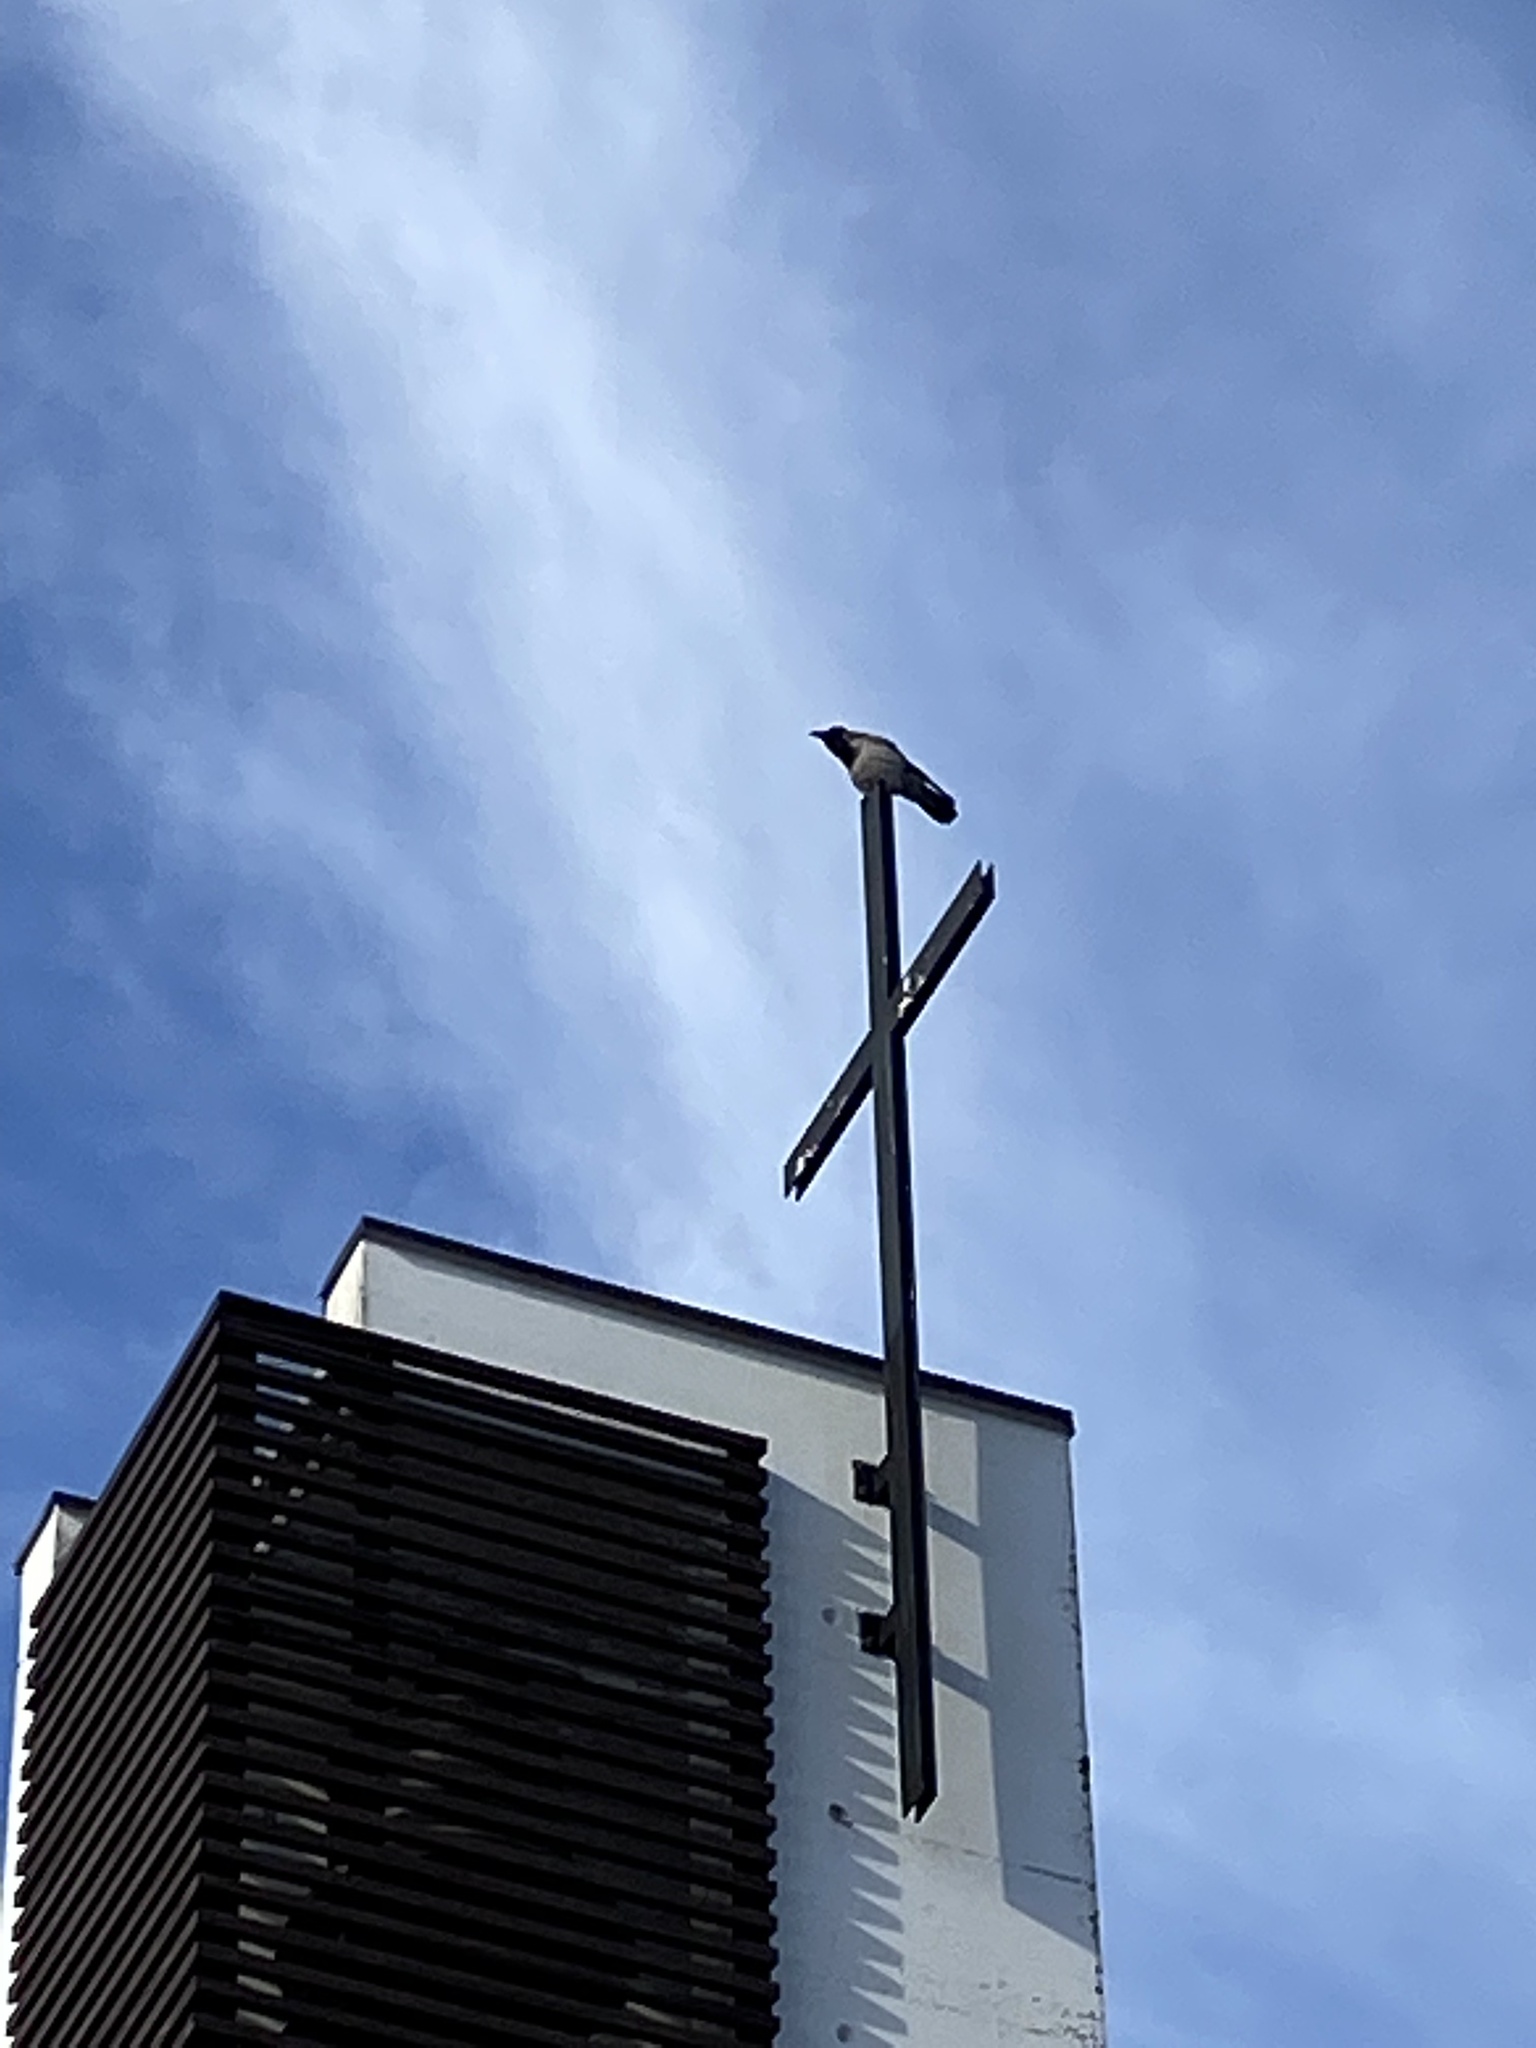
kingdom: Animalia
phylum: Chordata
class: Aves
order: Passeriformes
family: Corvidae
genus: Corvus
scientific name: Corvus cornix
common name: Hooded crow
